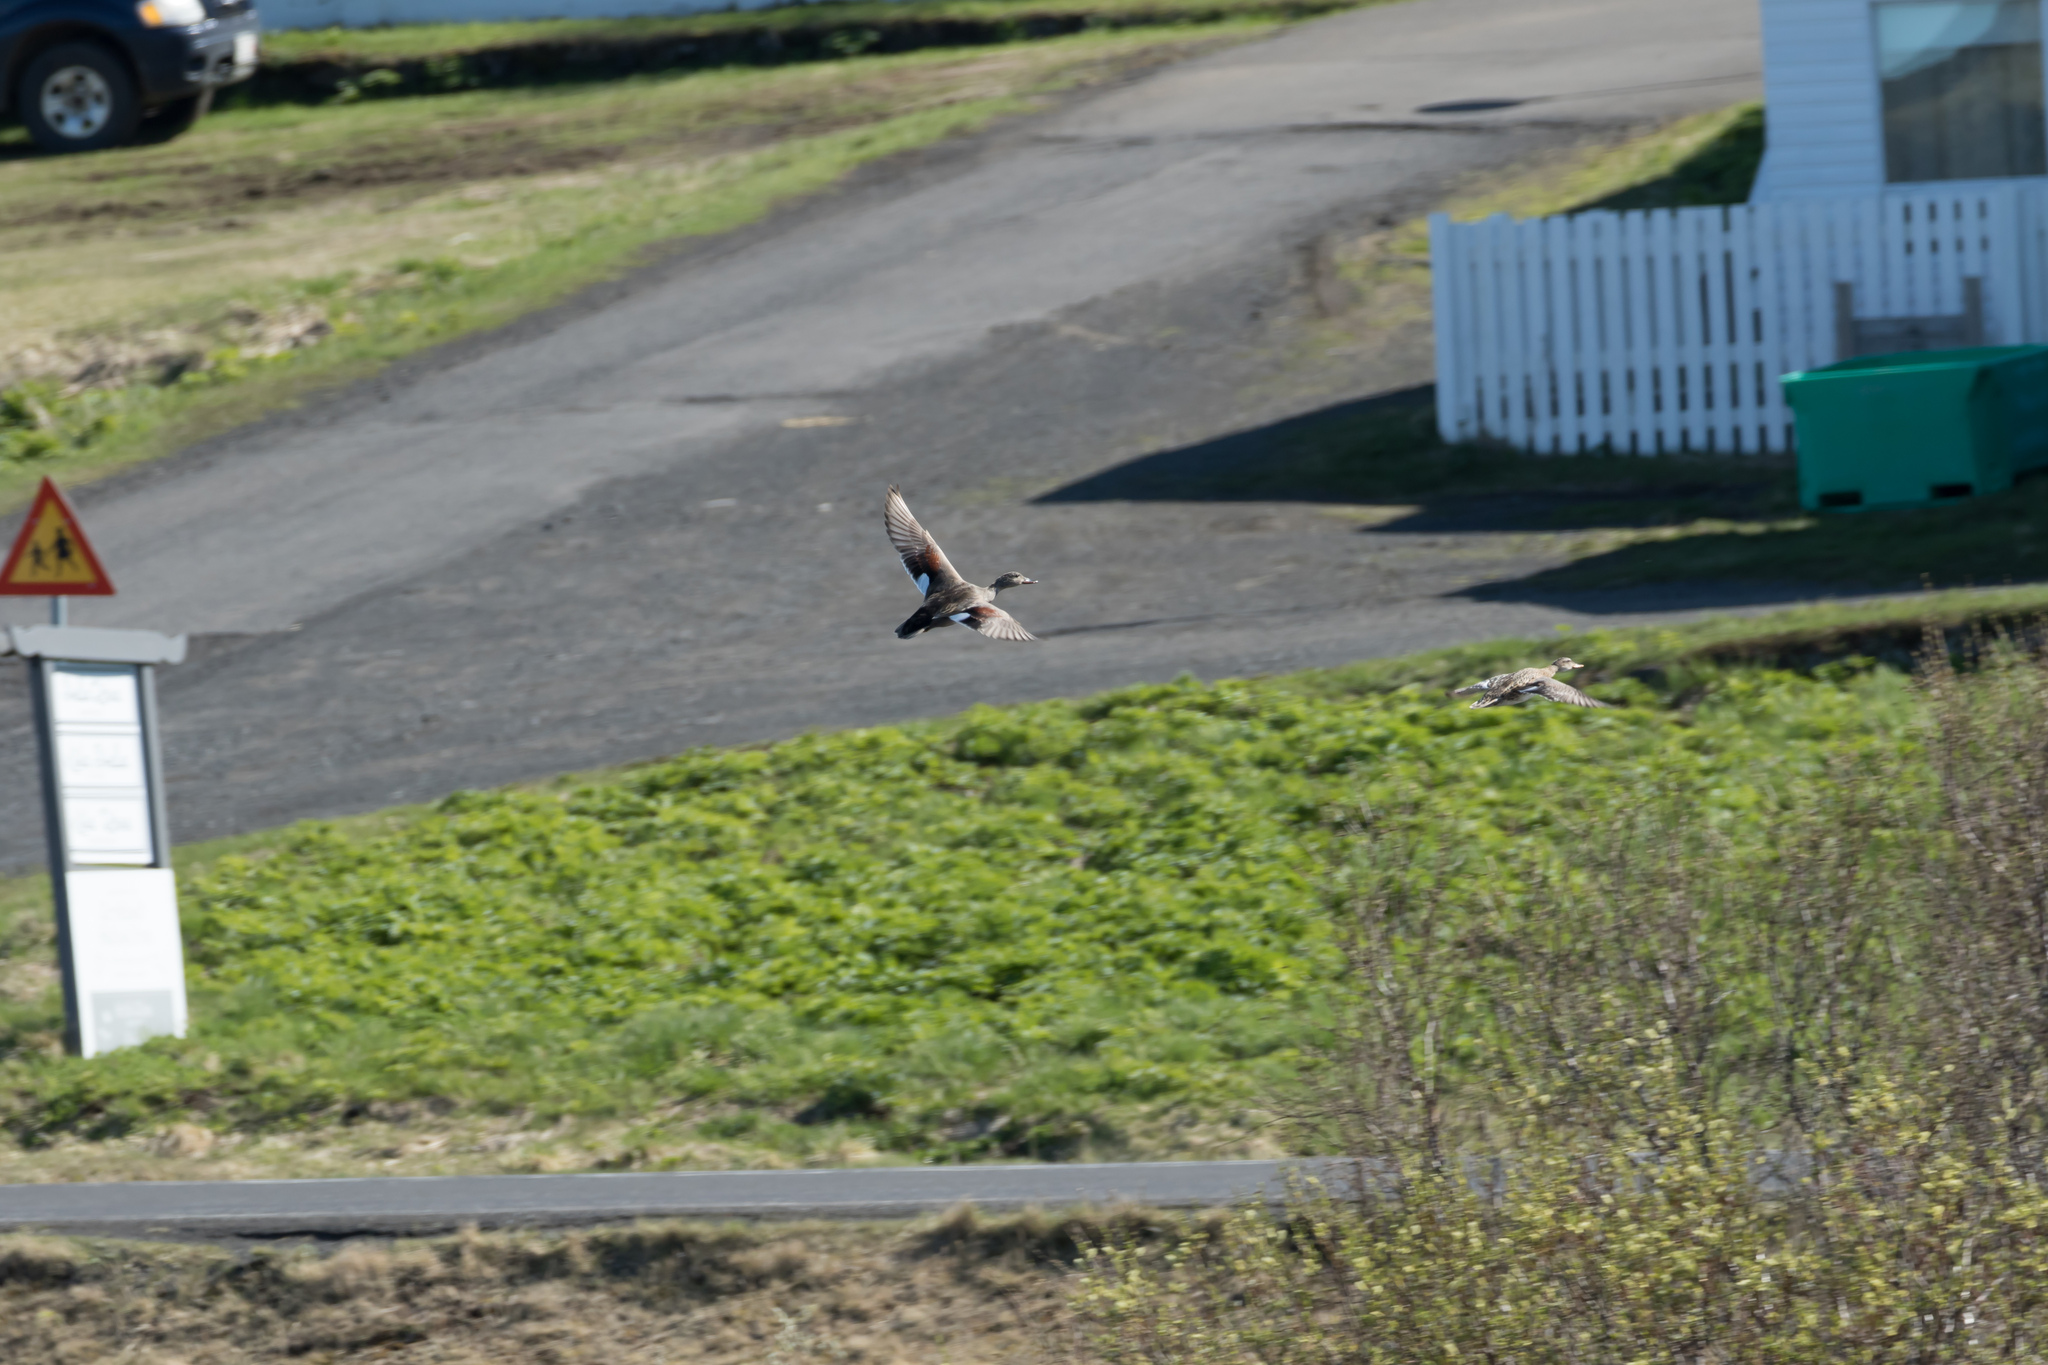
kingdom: Animalia
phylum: Chordata
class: Aves
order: Anseriformes
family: Anatidae
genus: Mareca
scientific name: Mareca strepera
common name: Gadwall
